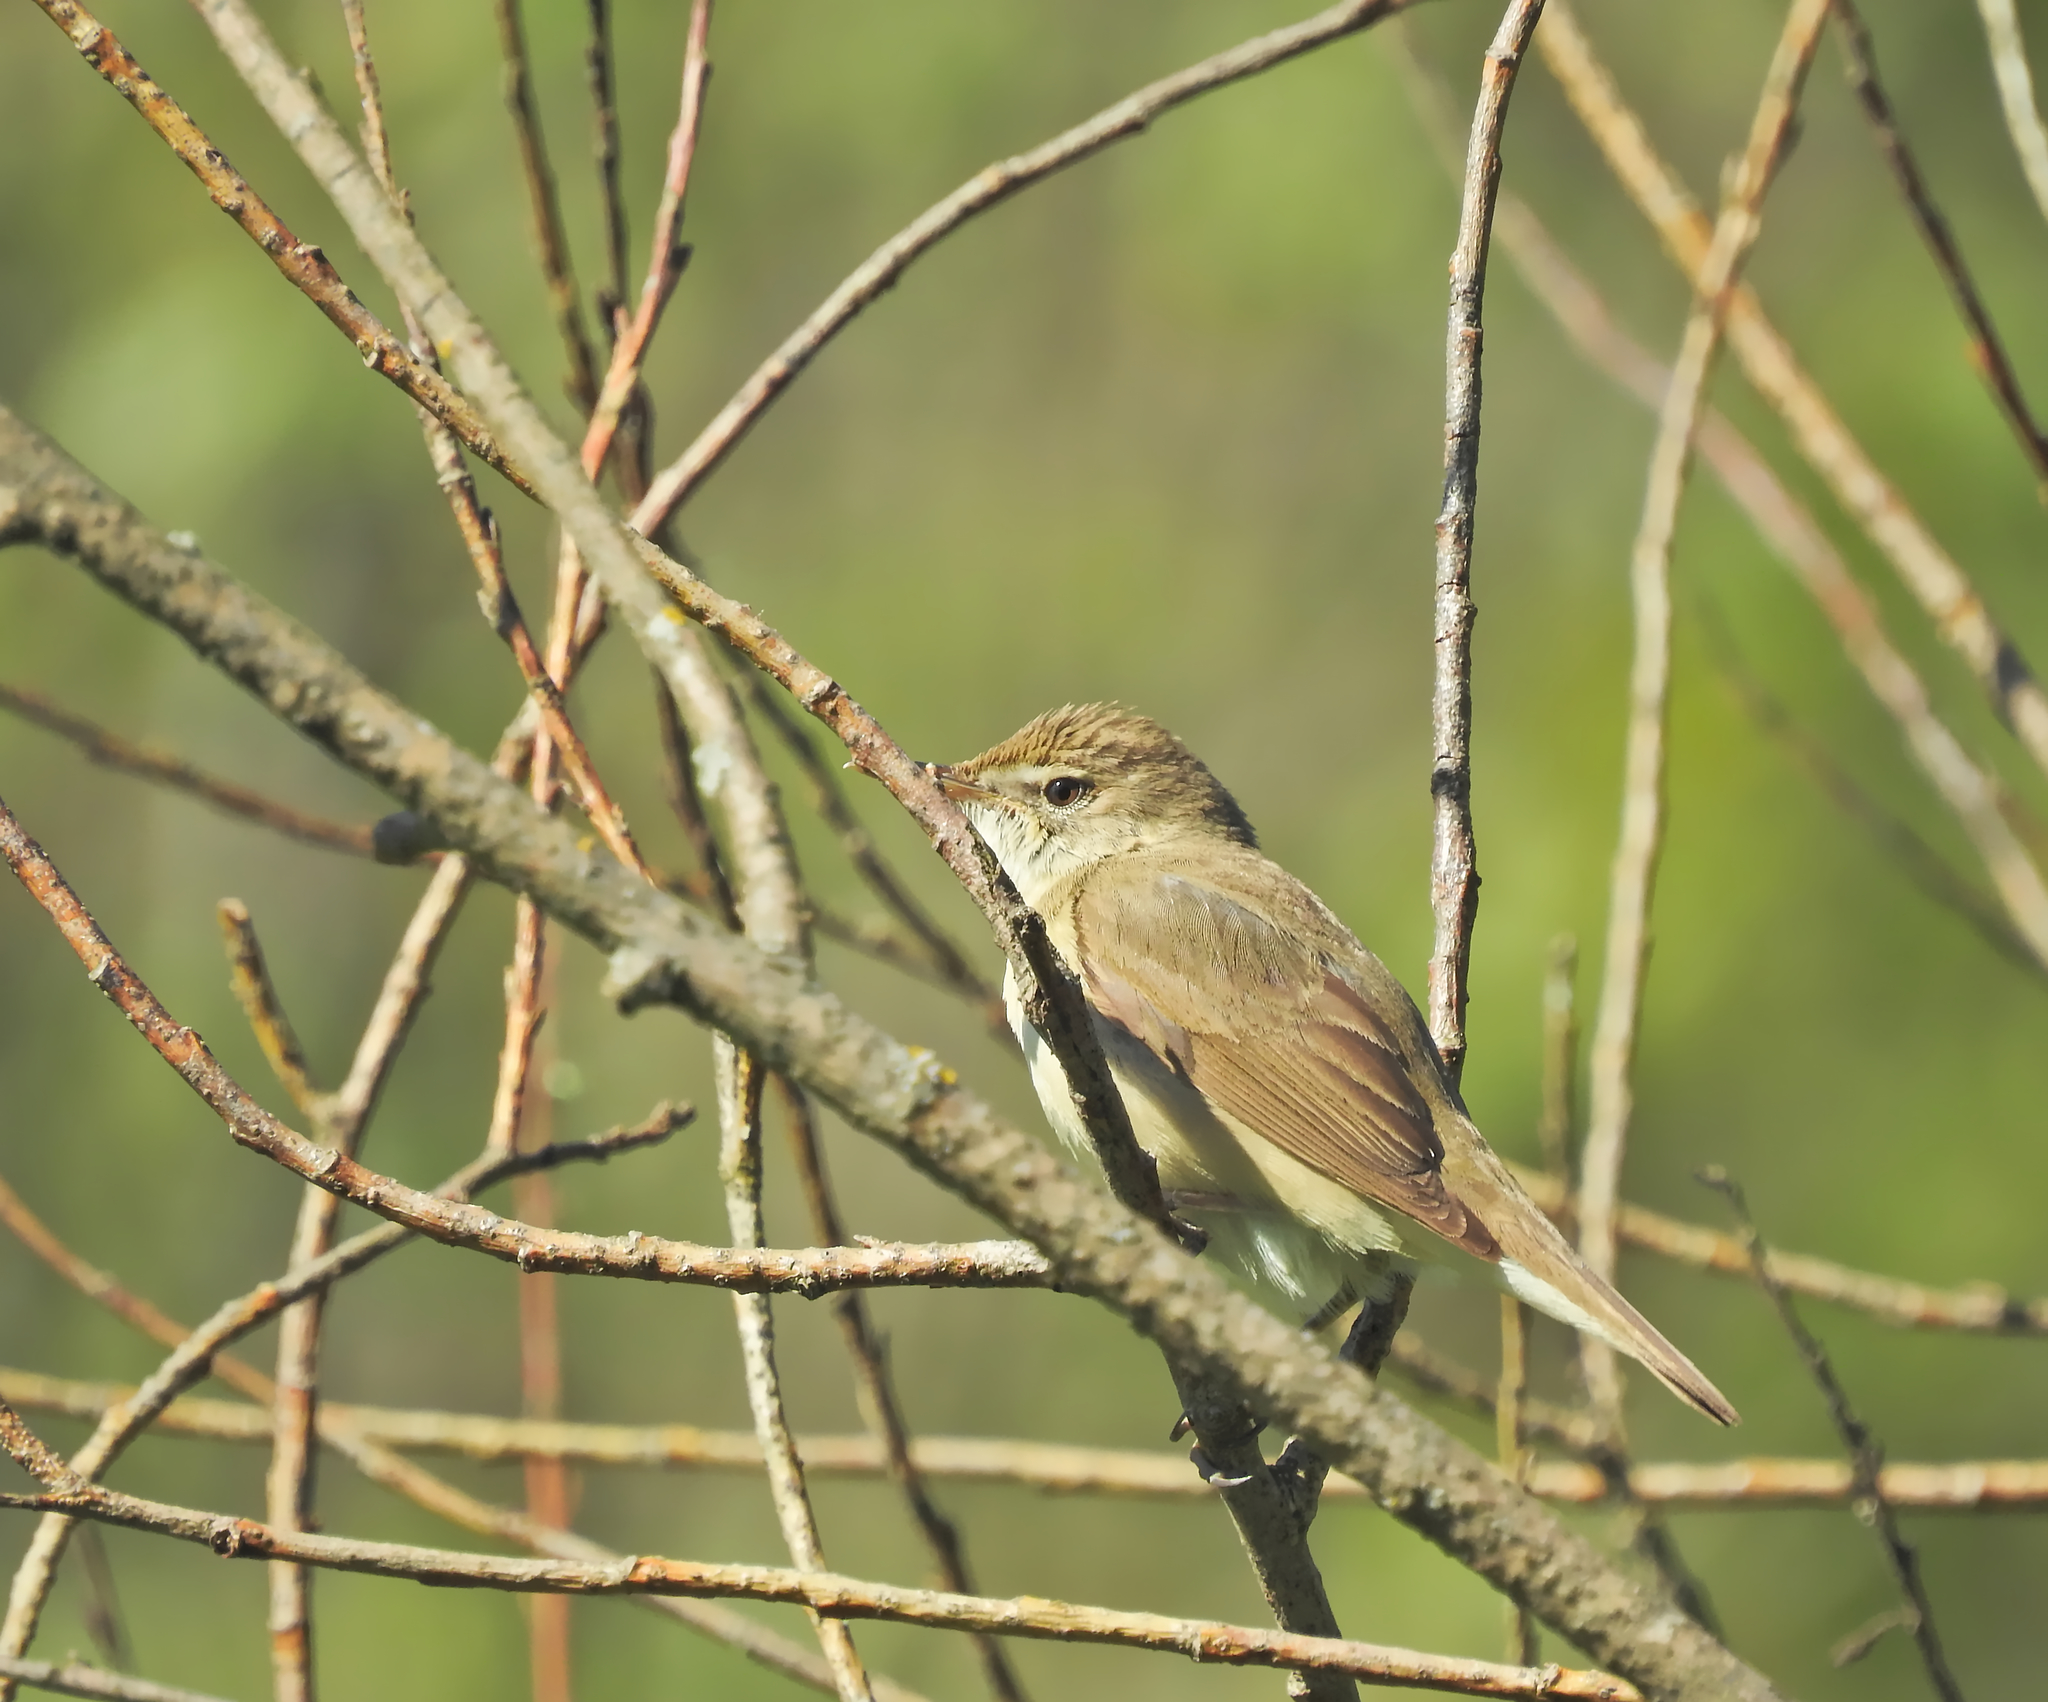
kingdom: Animalia
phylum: Chordata
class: Aves
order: Passeriformes
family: Acrocephalidae
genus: Acrocephalus
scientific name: Acrocephalus dumetorum
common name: Blyth's reed warbler
